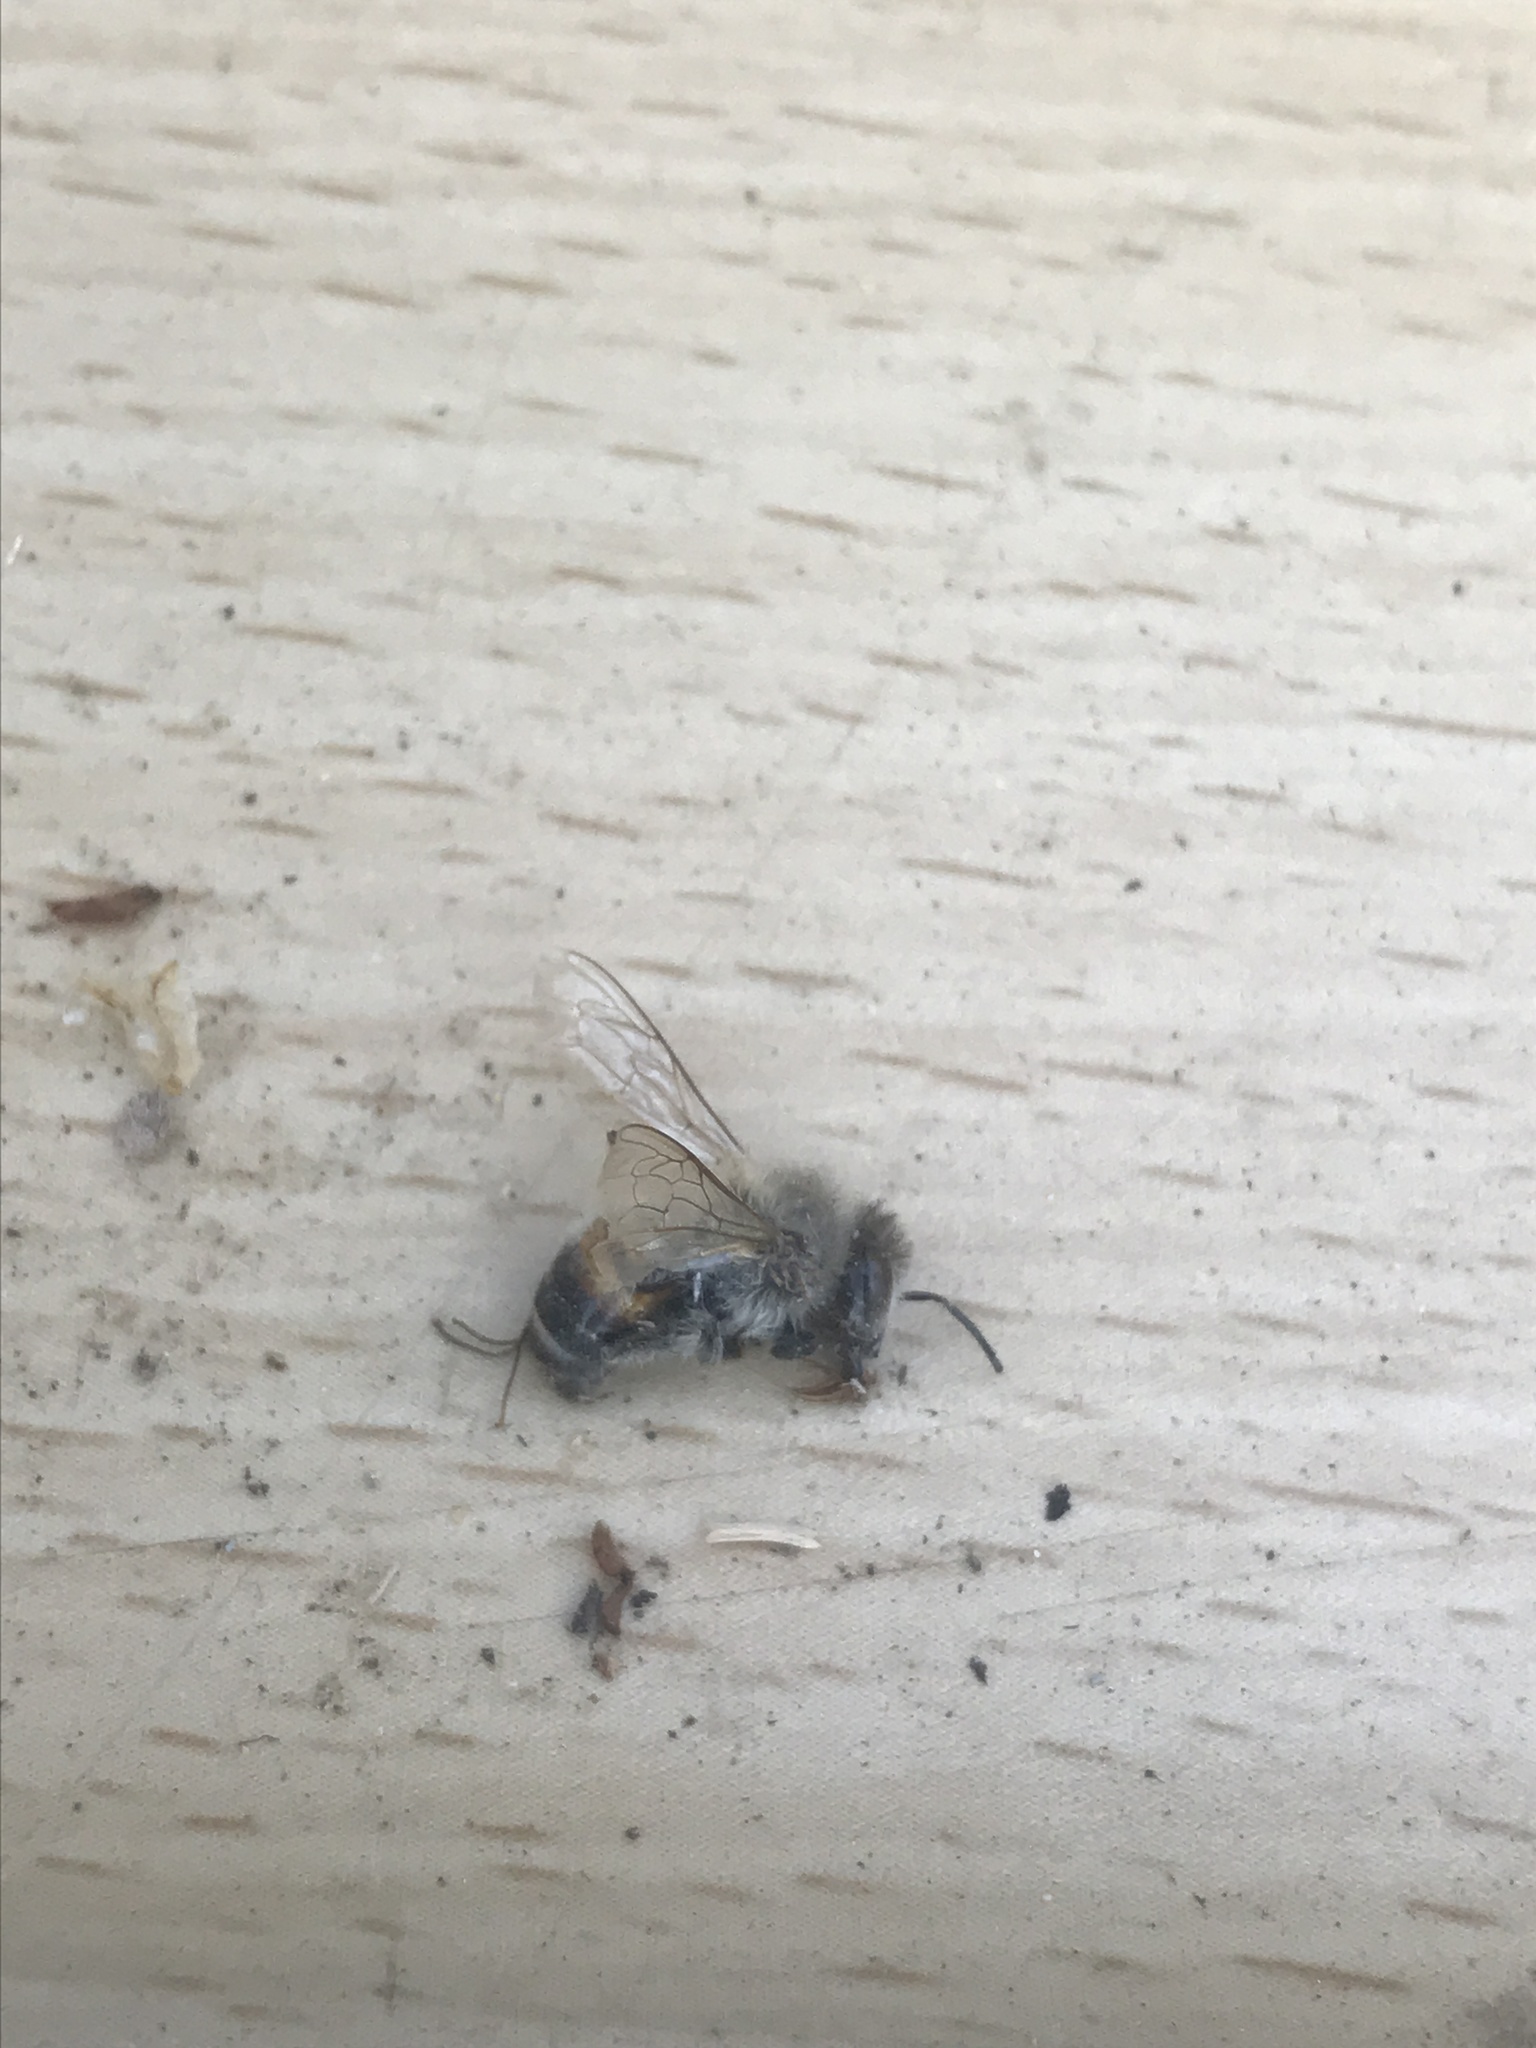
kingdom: Animalia
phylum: Arthropoda
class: Insecta
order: Hymenoptera
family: Apidae
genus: Apis
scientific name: Apis mellifera
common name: Honey bee
